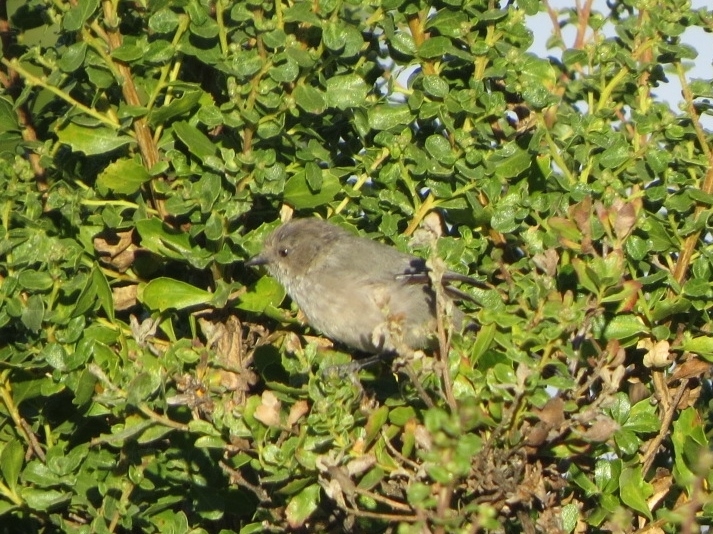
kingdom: Animalia
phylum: Chordata
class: Aves
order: Passeriformes
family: Aegithalidae
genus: Psaltriparus
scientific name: Psaltriparus minimus
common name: American bushtit
